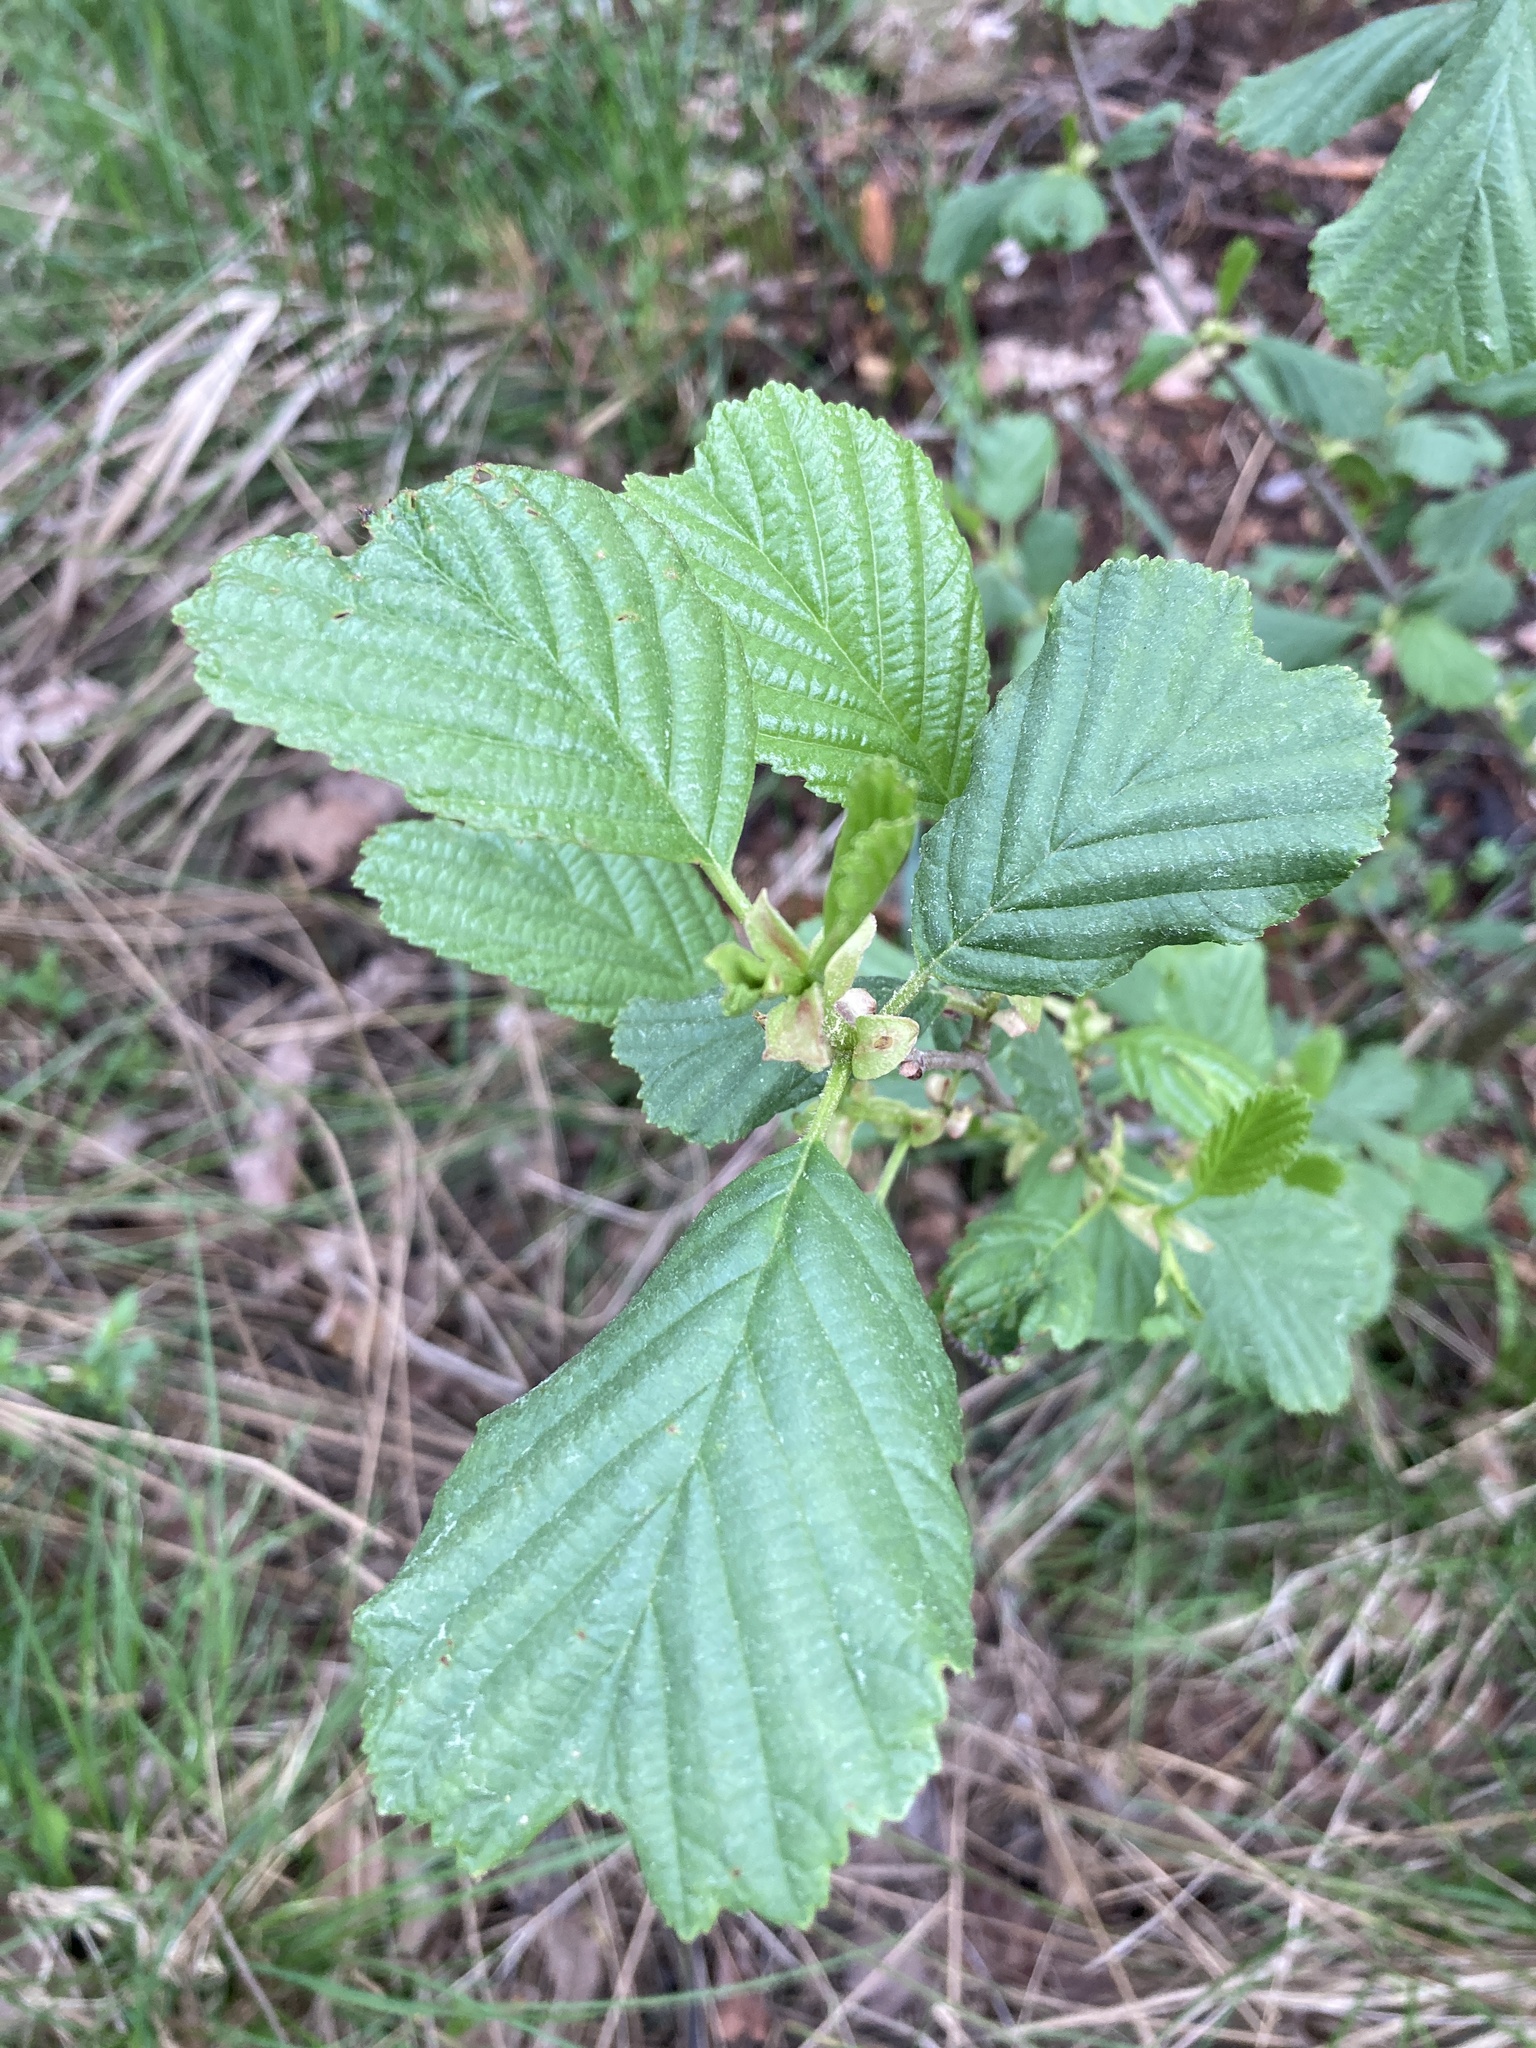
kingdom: Plantae
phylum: Tracheophyta
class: Magnoliopsida
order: Fagales
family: Betulaceae
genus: Alnus
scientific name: Alnus glutinosa
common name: Black alder
